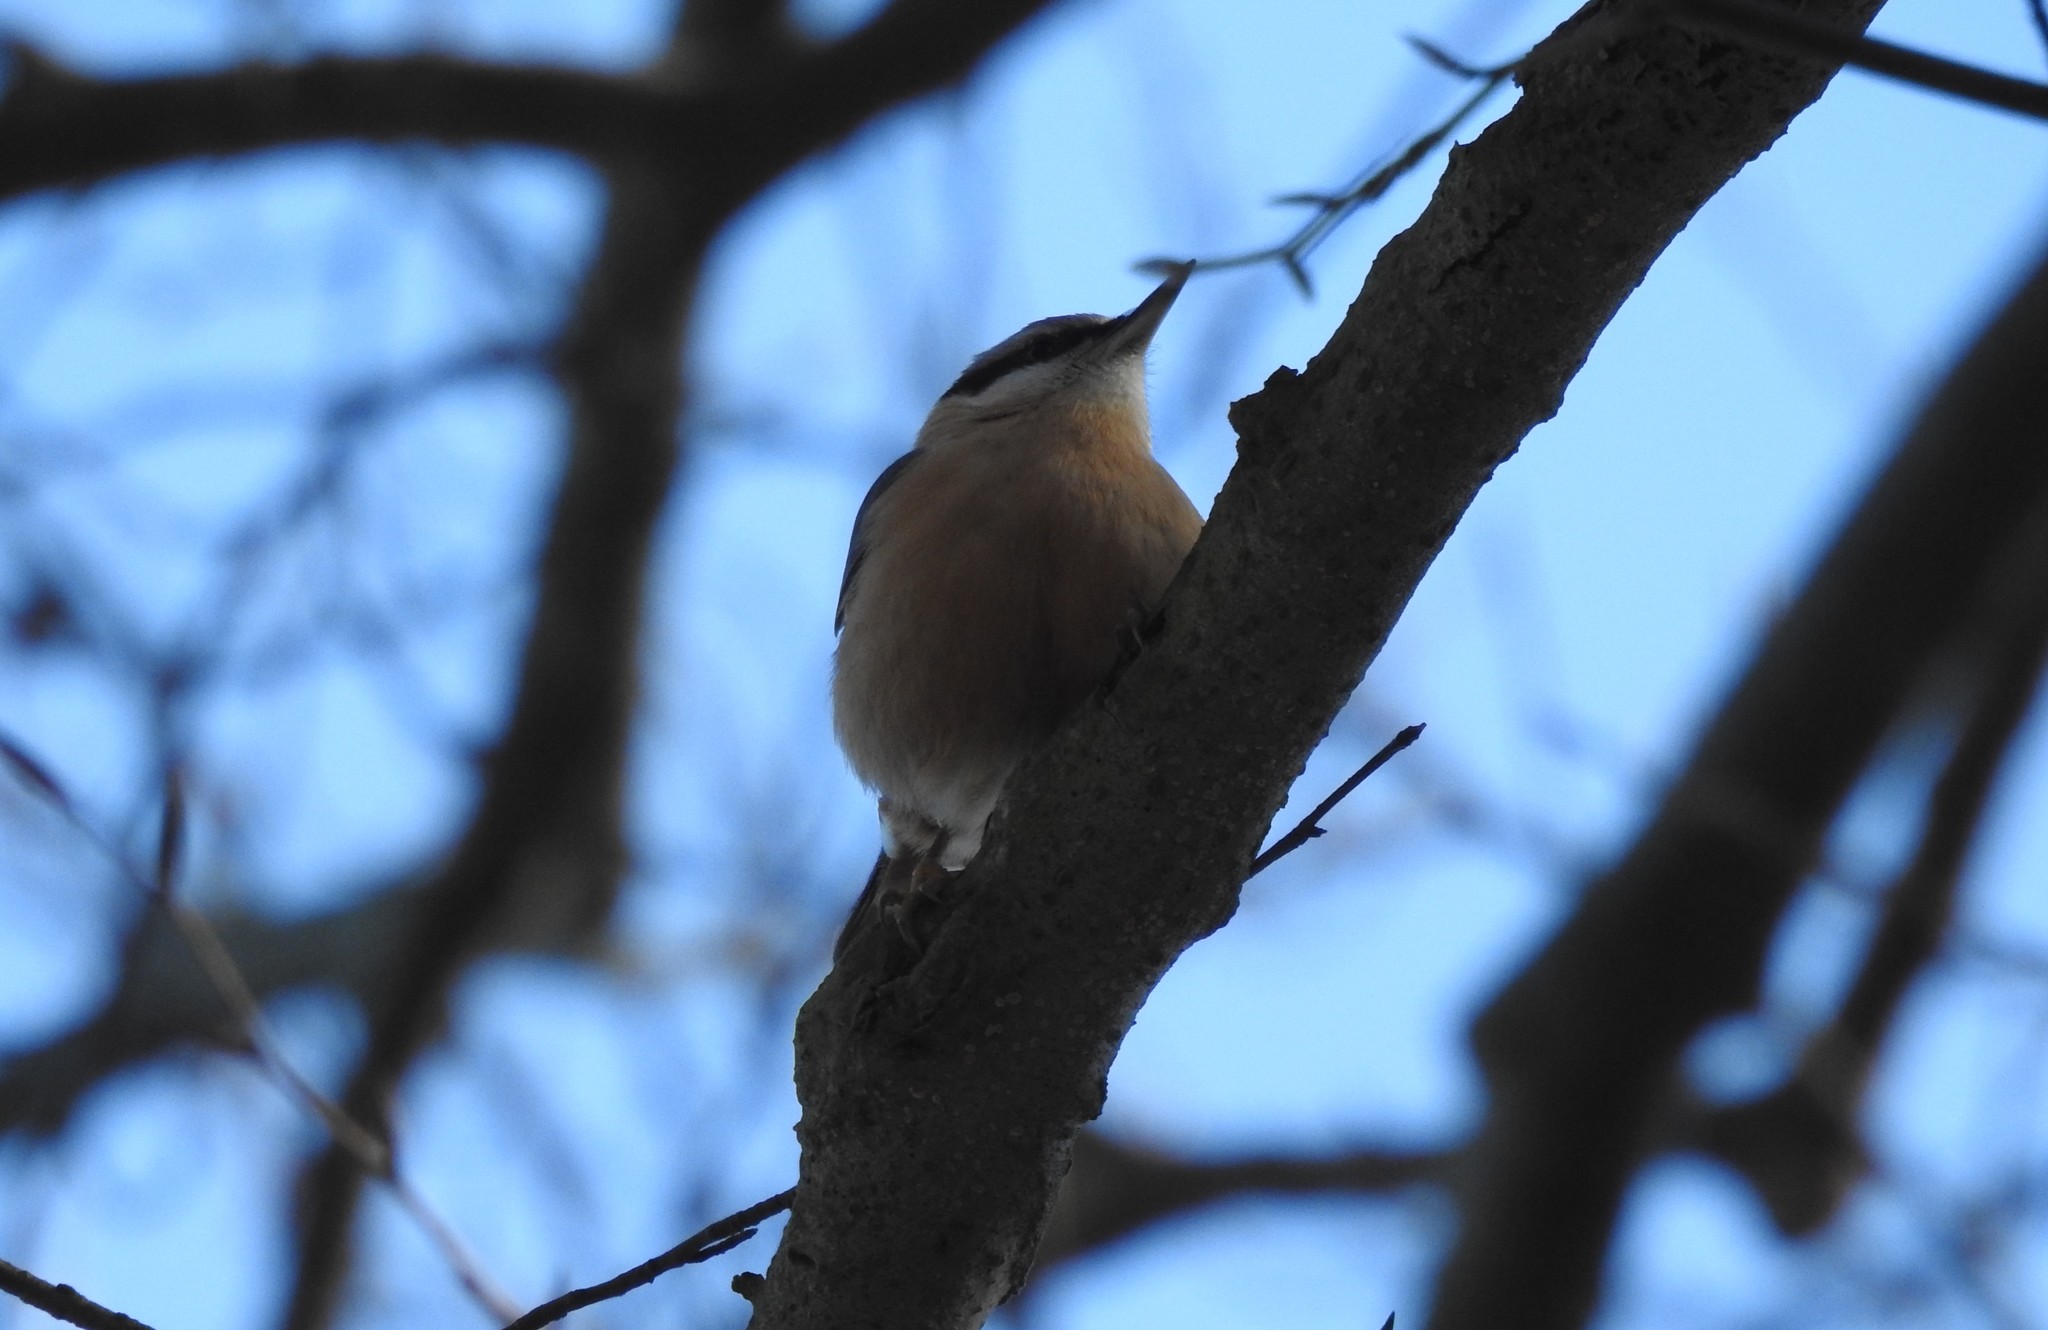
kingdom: Animalia
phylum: Chordata
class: Aves
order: Passeriformes
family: Sittidae
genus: Sitta
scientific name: Sitta europaea
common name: Eurasian nuthatch
